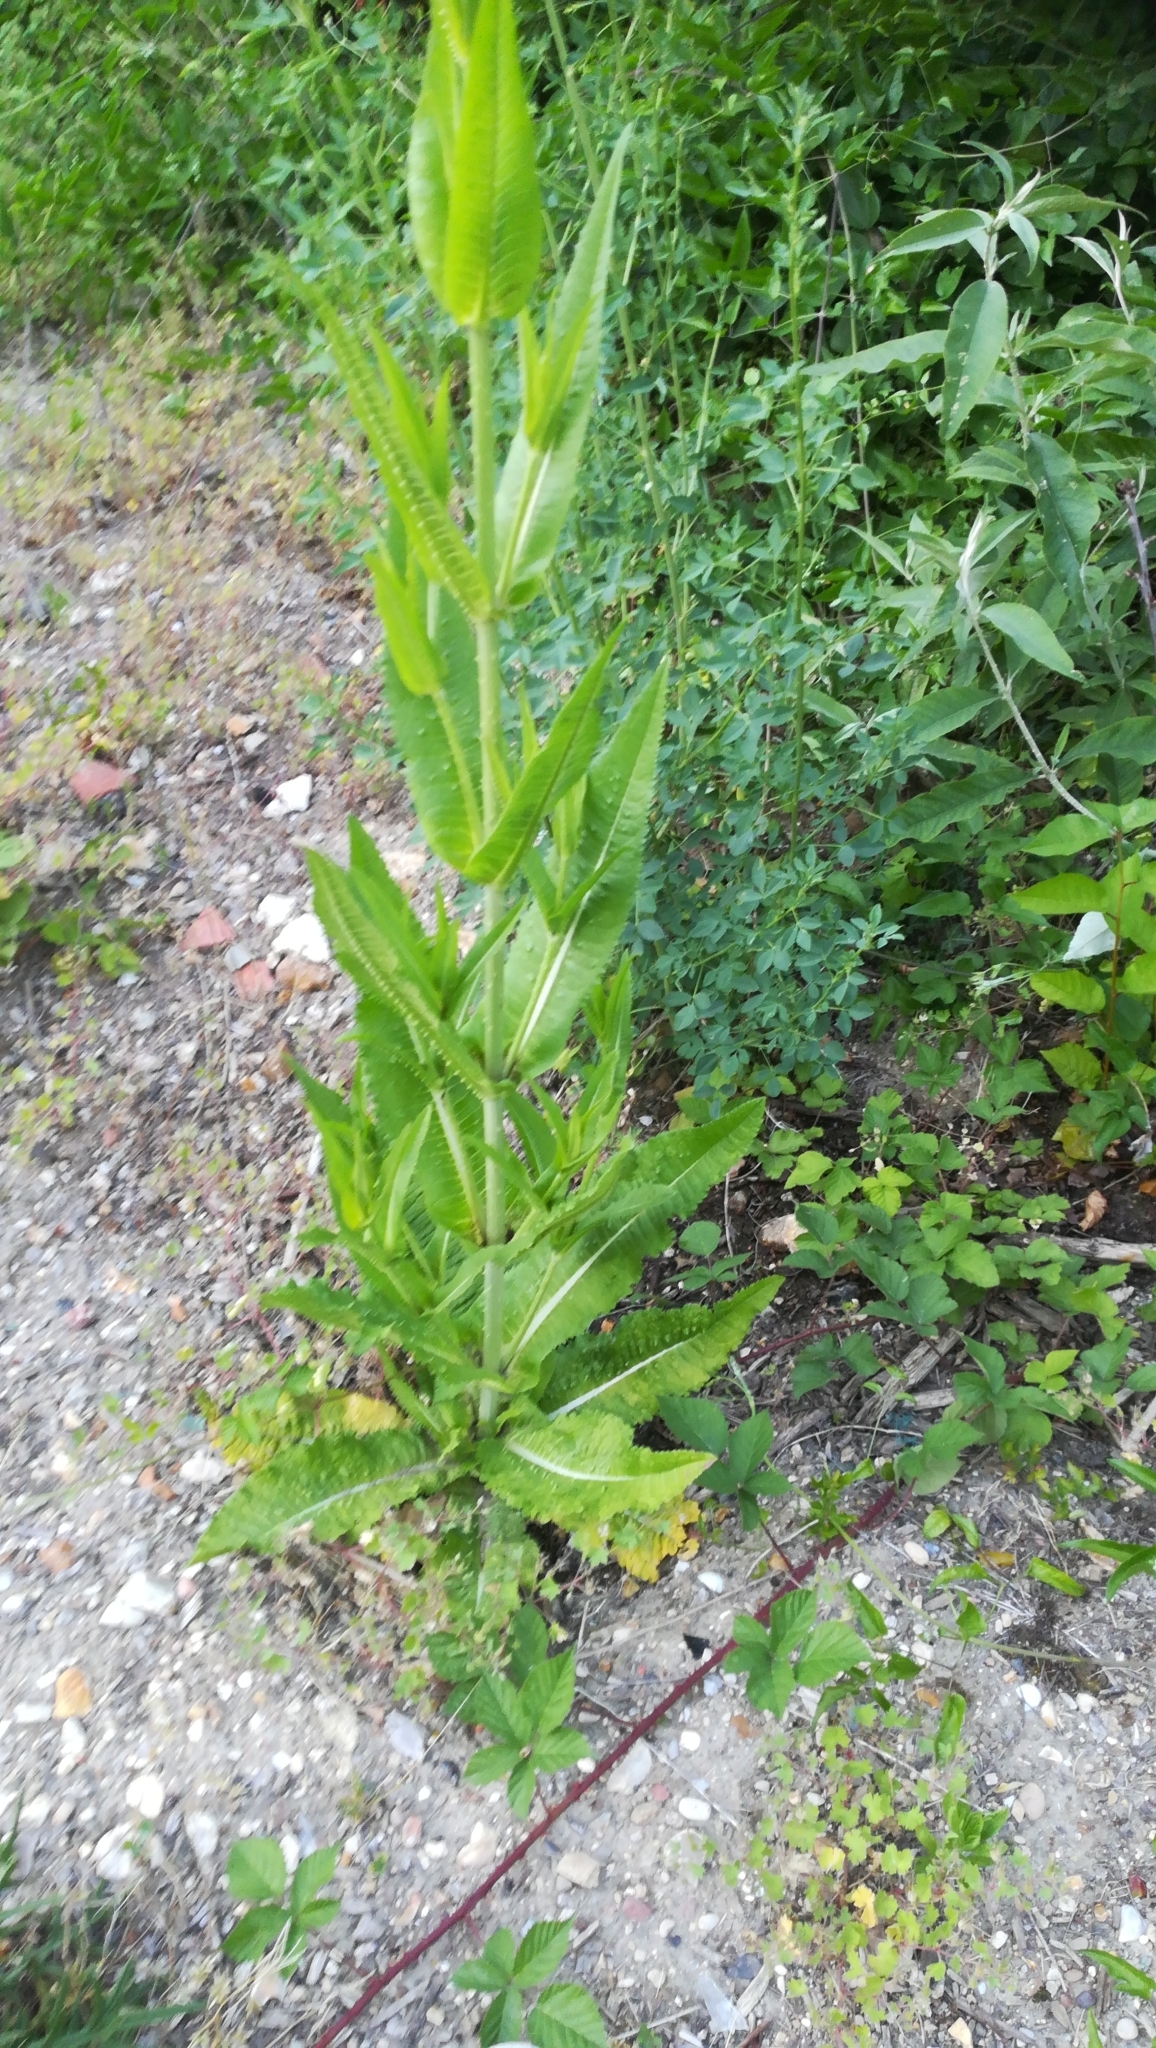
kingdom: Plantae
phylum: Tracheophyta
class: Magnoliopsida
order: Dipsacales
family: Caprifoliaceae
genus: Dipsacus
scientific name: Dipsacus fullonum
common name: Teasel
